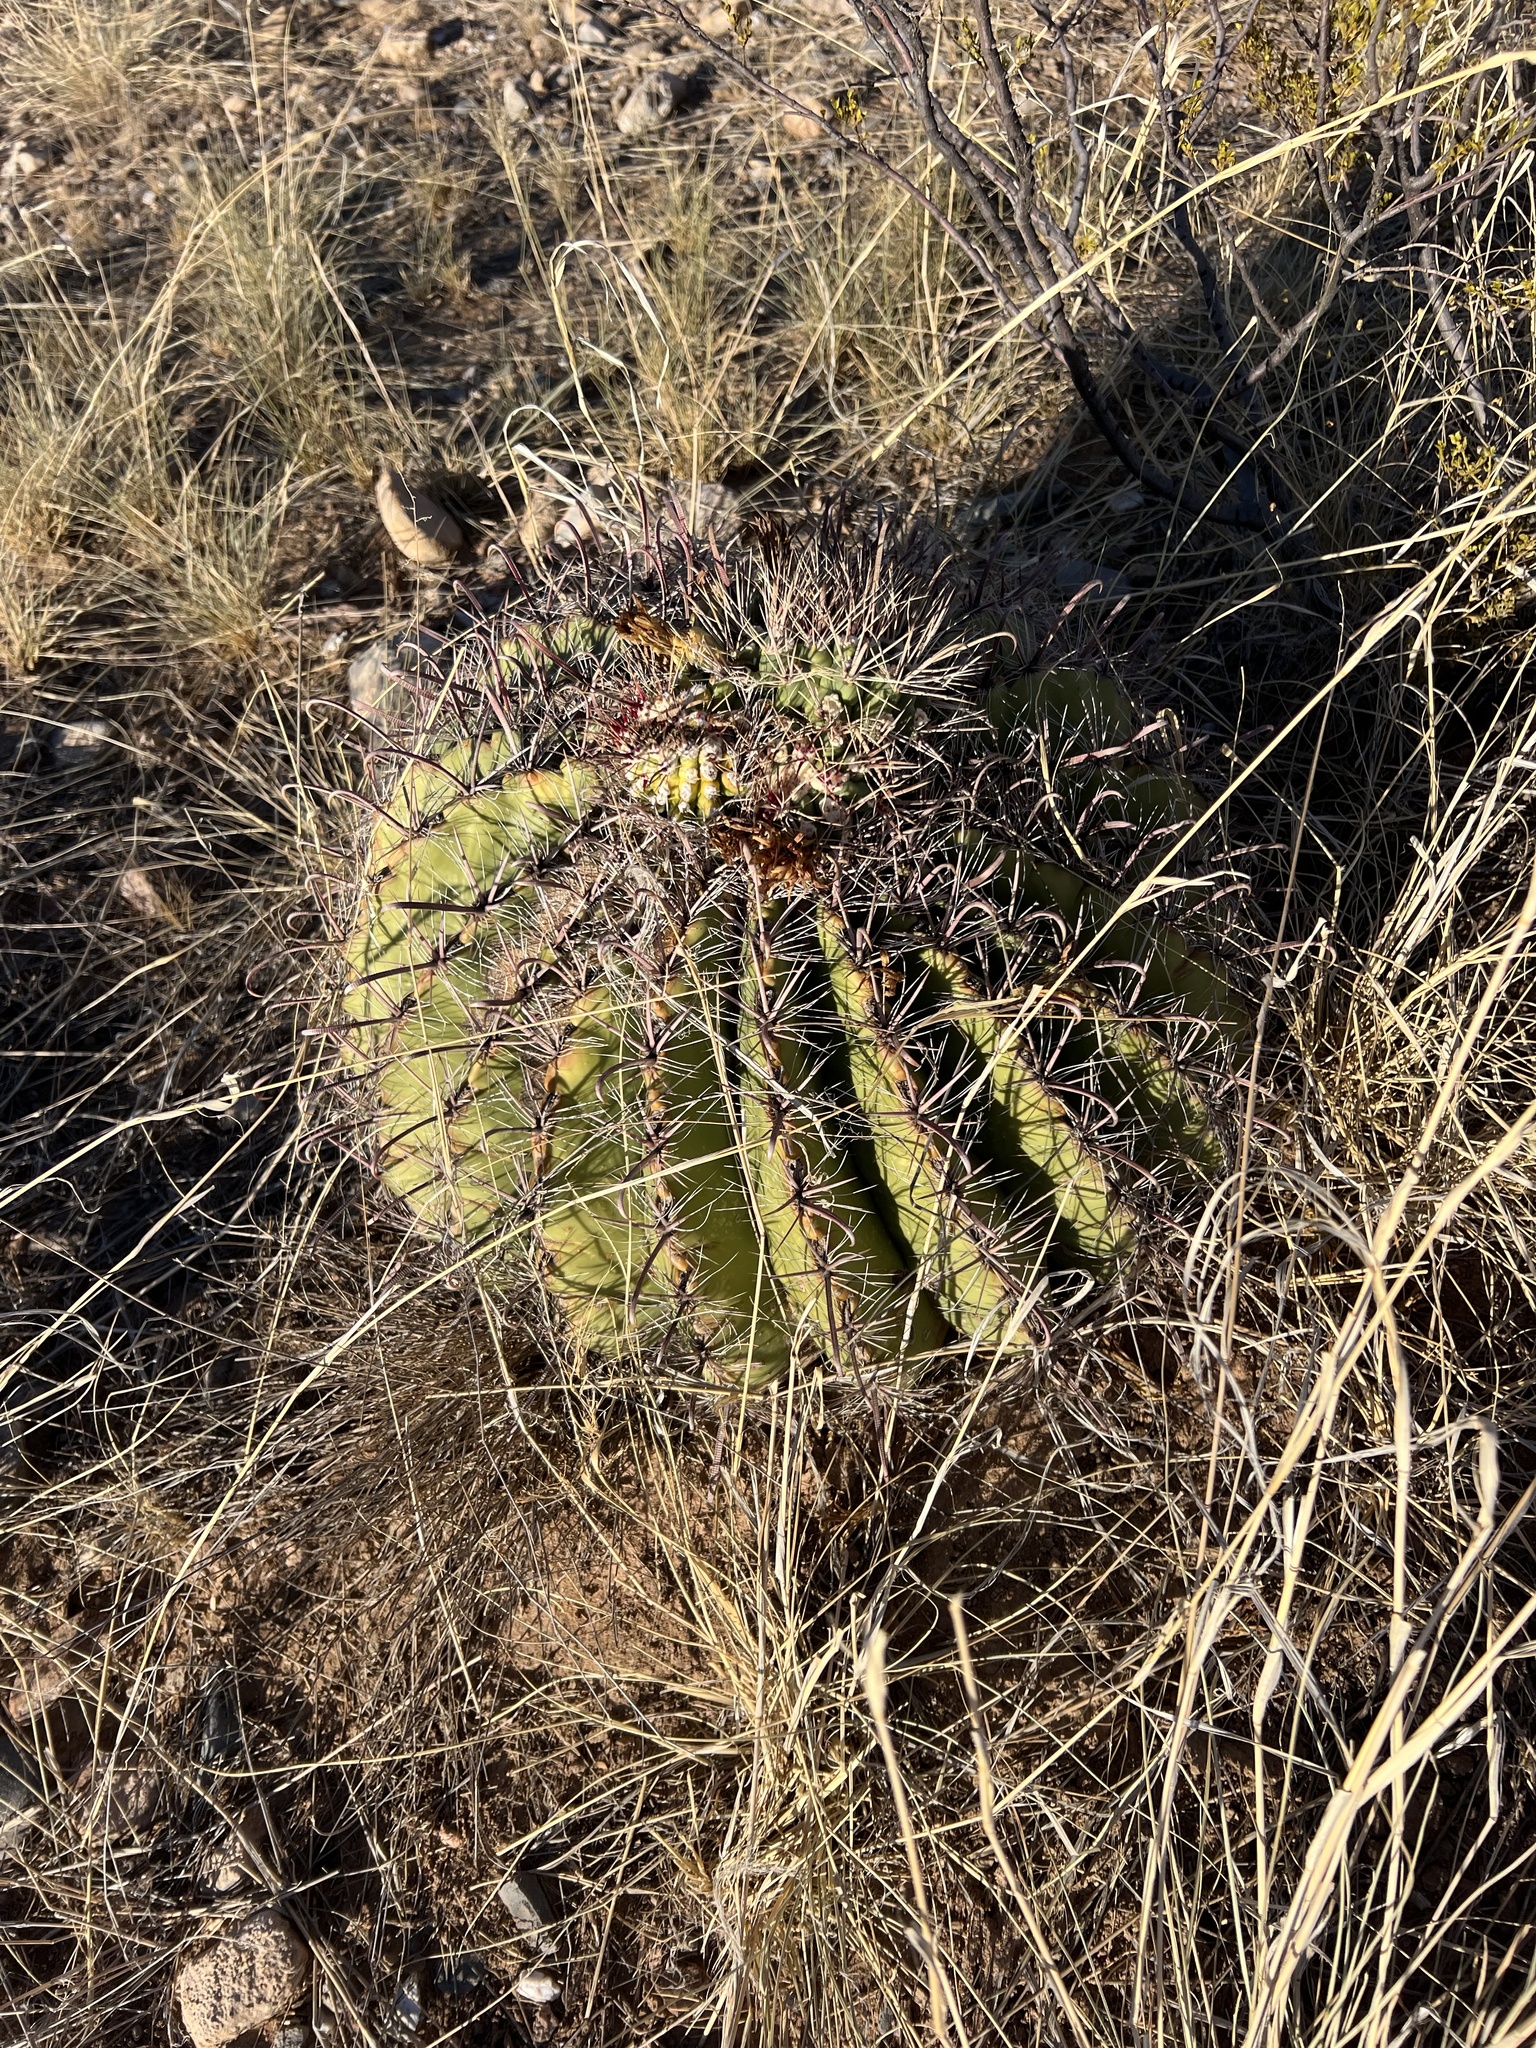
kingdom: Plantae
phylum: Tracheophyta
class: Magnoliopsida
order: Caryophyllales
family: Cactaceae
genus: Ferocactus
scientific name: Ferocactus wislizeni
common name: Candy barrel cactus
